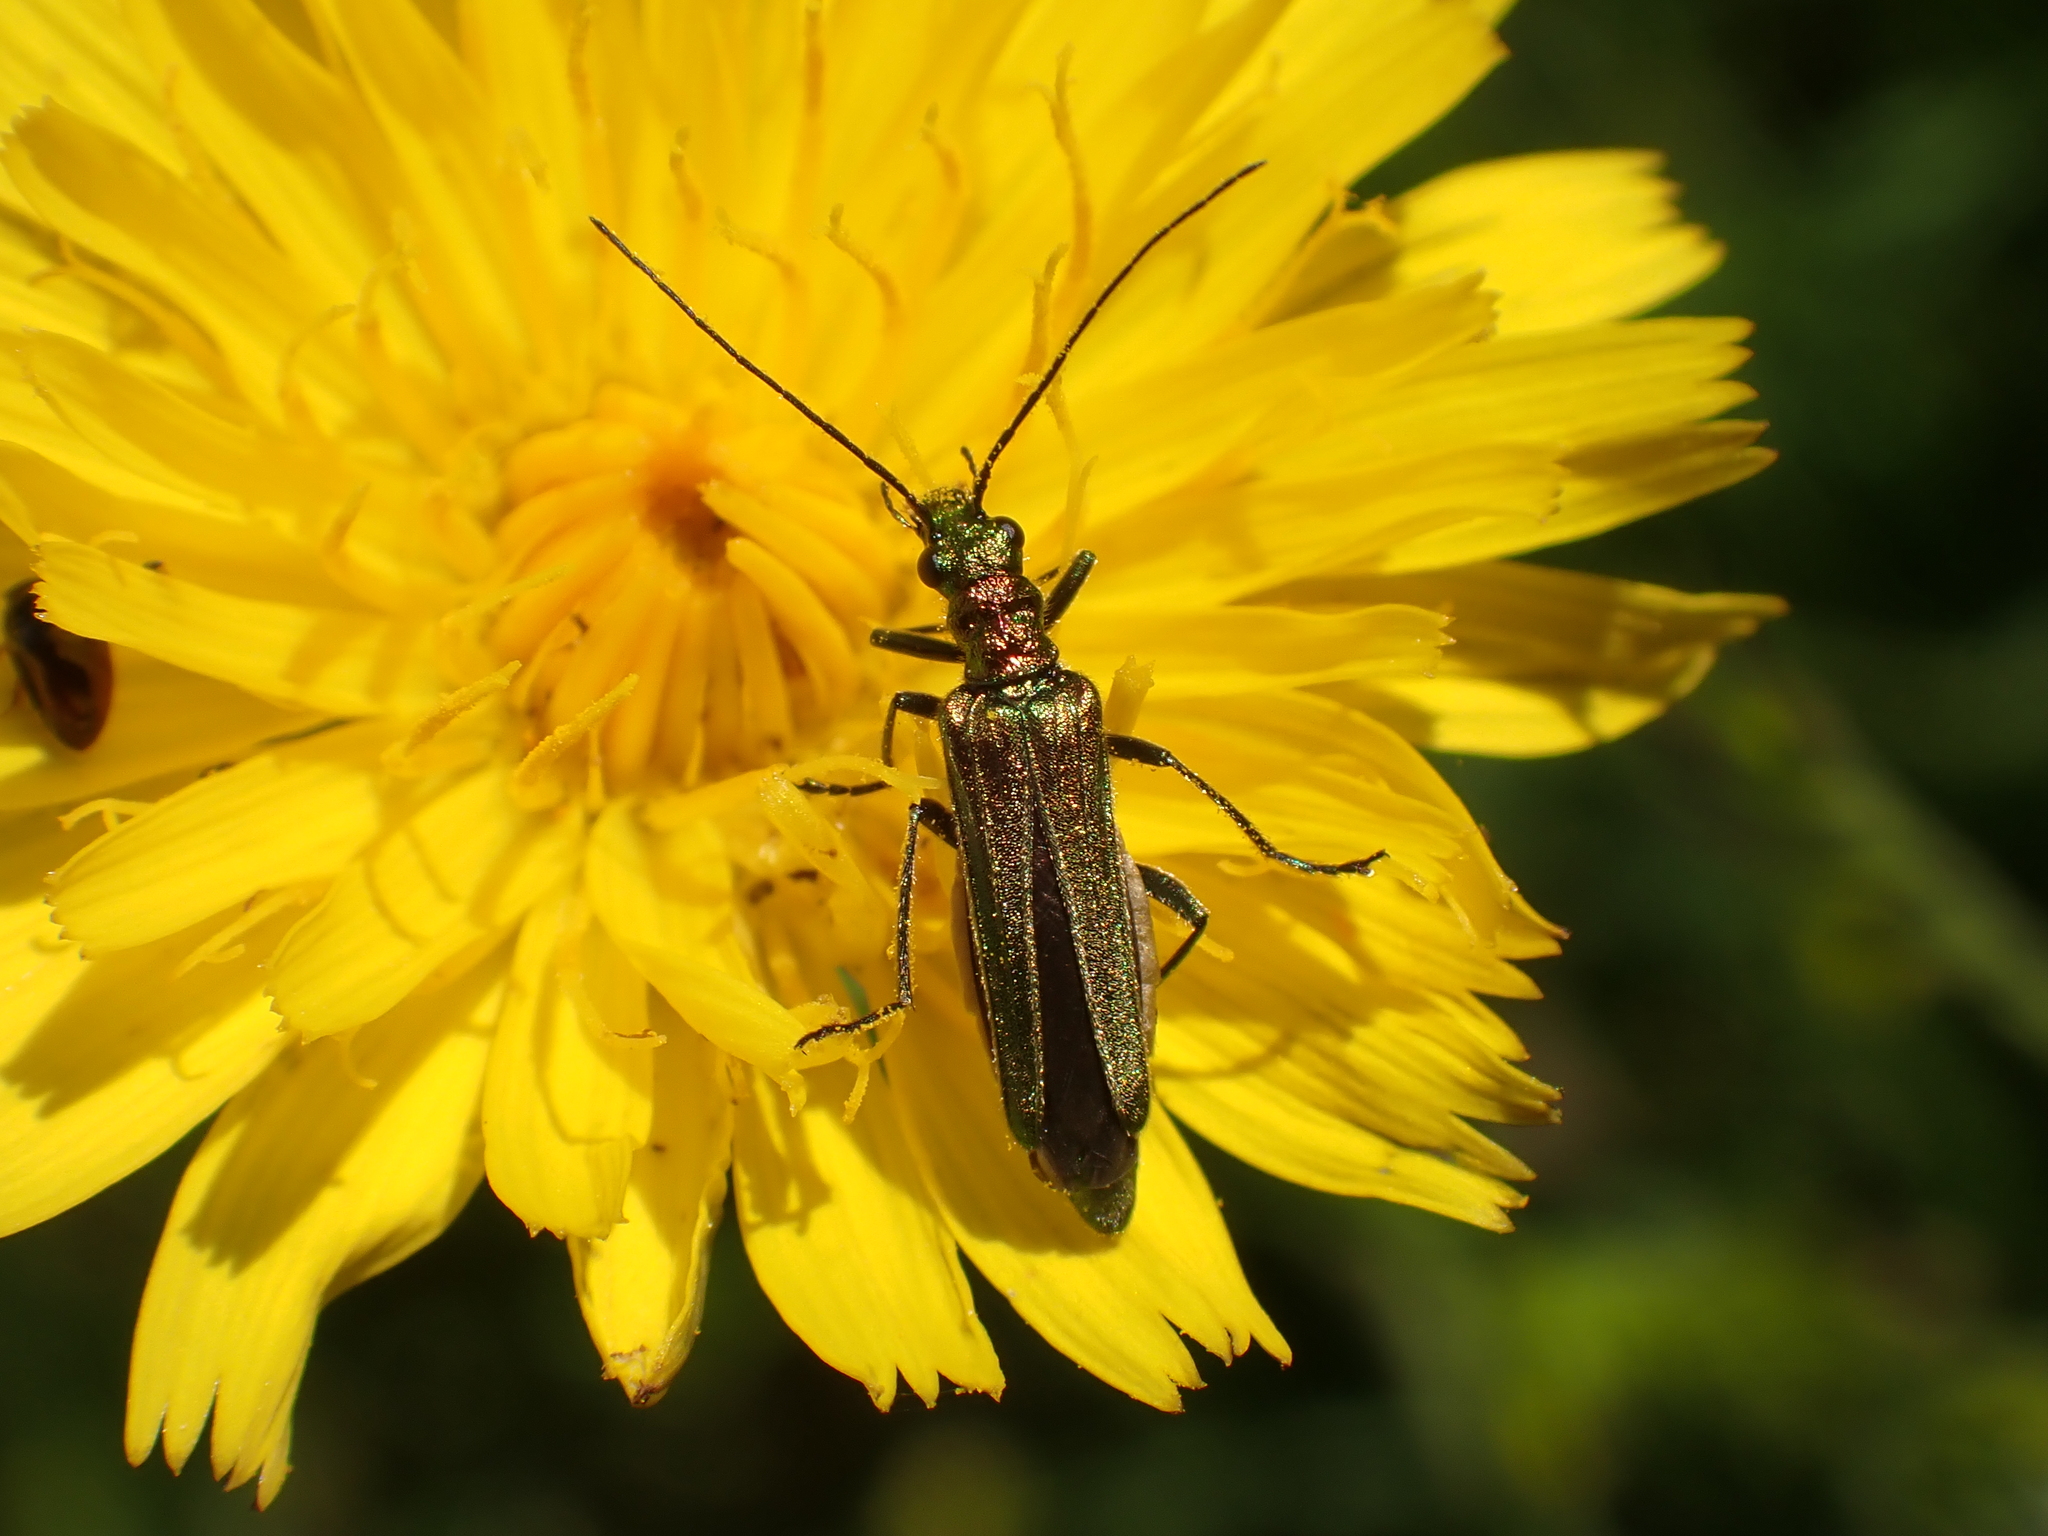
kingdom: Animalia
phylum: Arthropoda
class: Insecta
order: Coleoptera
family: Oedemeridae
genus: Oedemera
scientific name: Oedemera nobilis
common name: Swollen-thighed beetle
